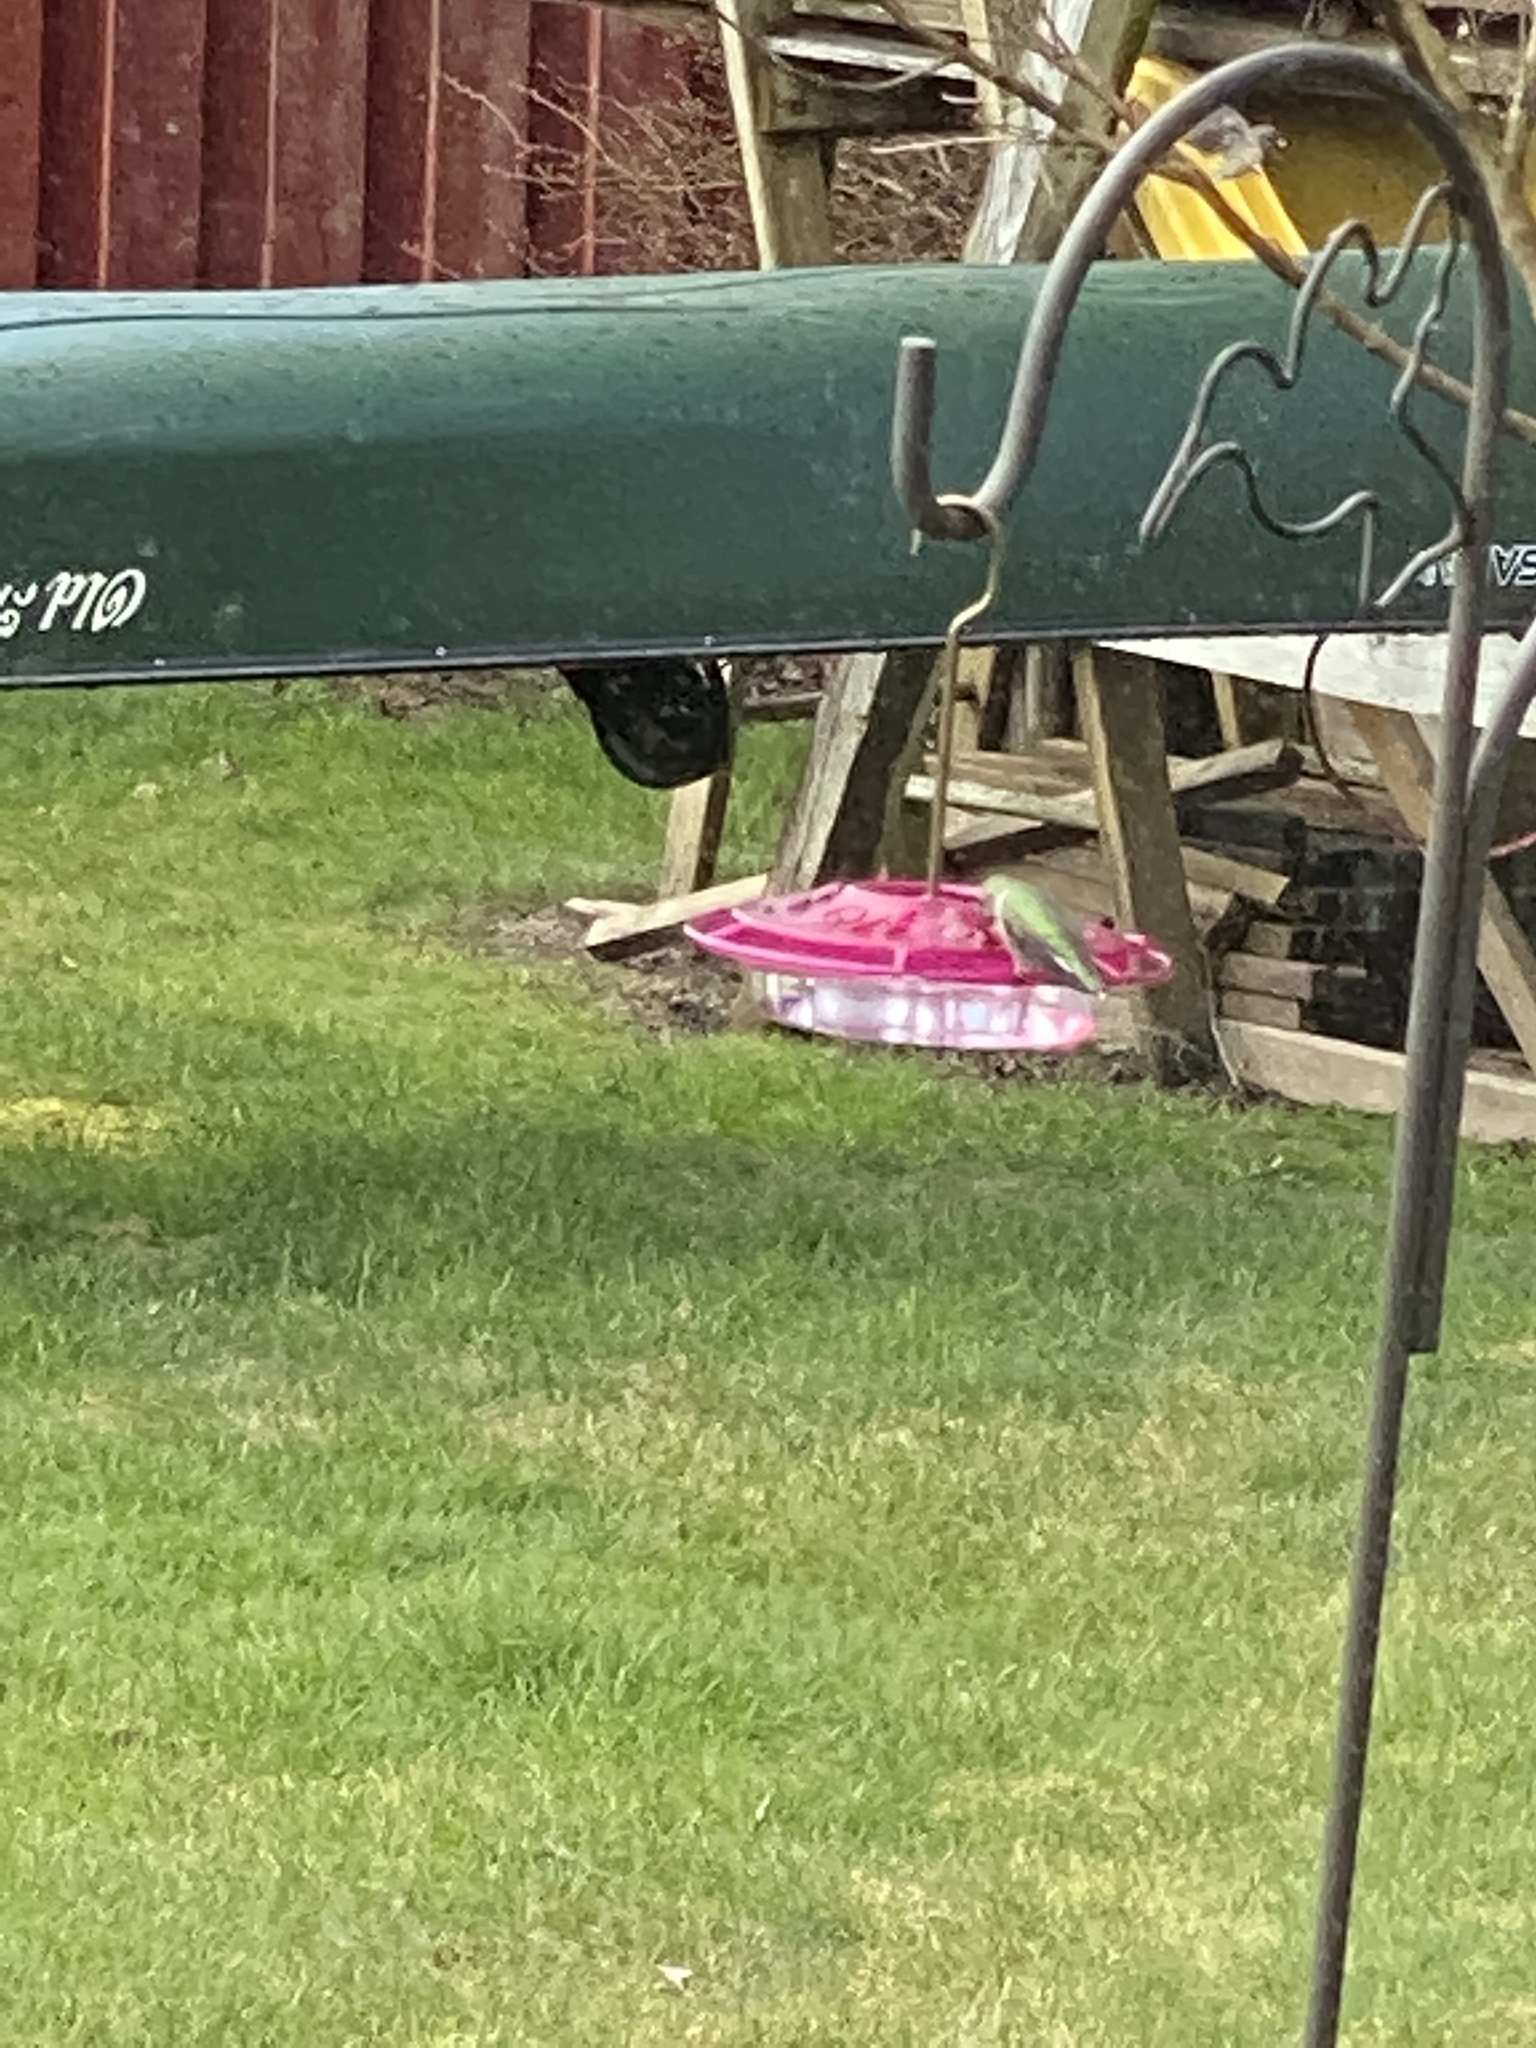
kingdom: Animalia
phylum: Chordata
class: Aves
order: Apodiformes
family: Trochilidae
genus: Calypte
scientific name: Calypte anna
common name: Anna's hummingbird
